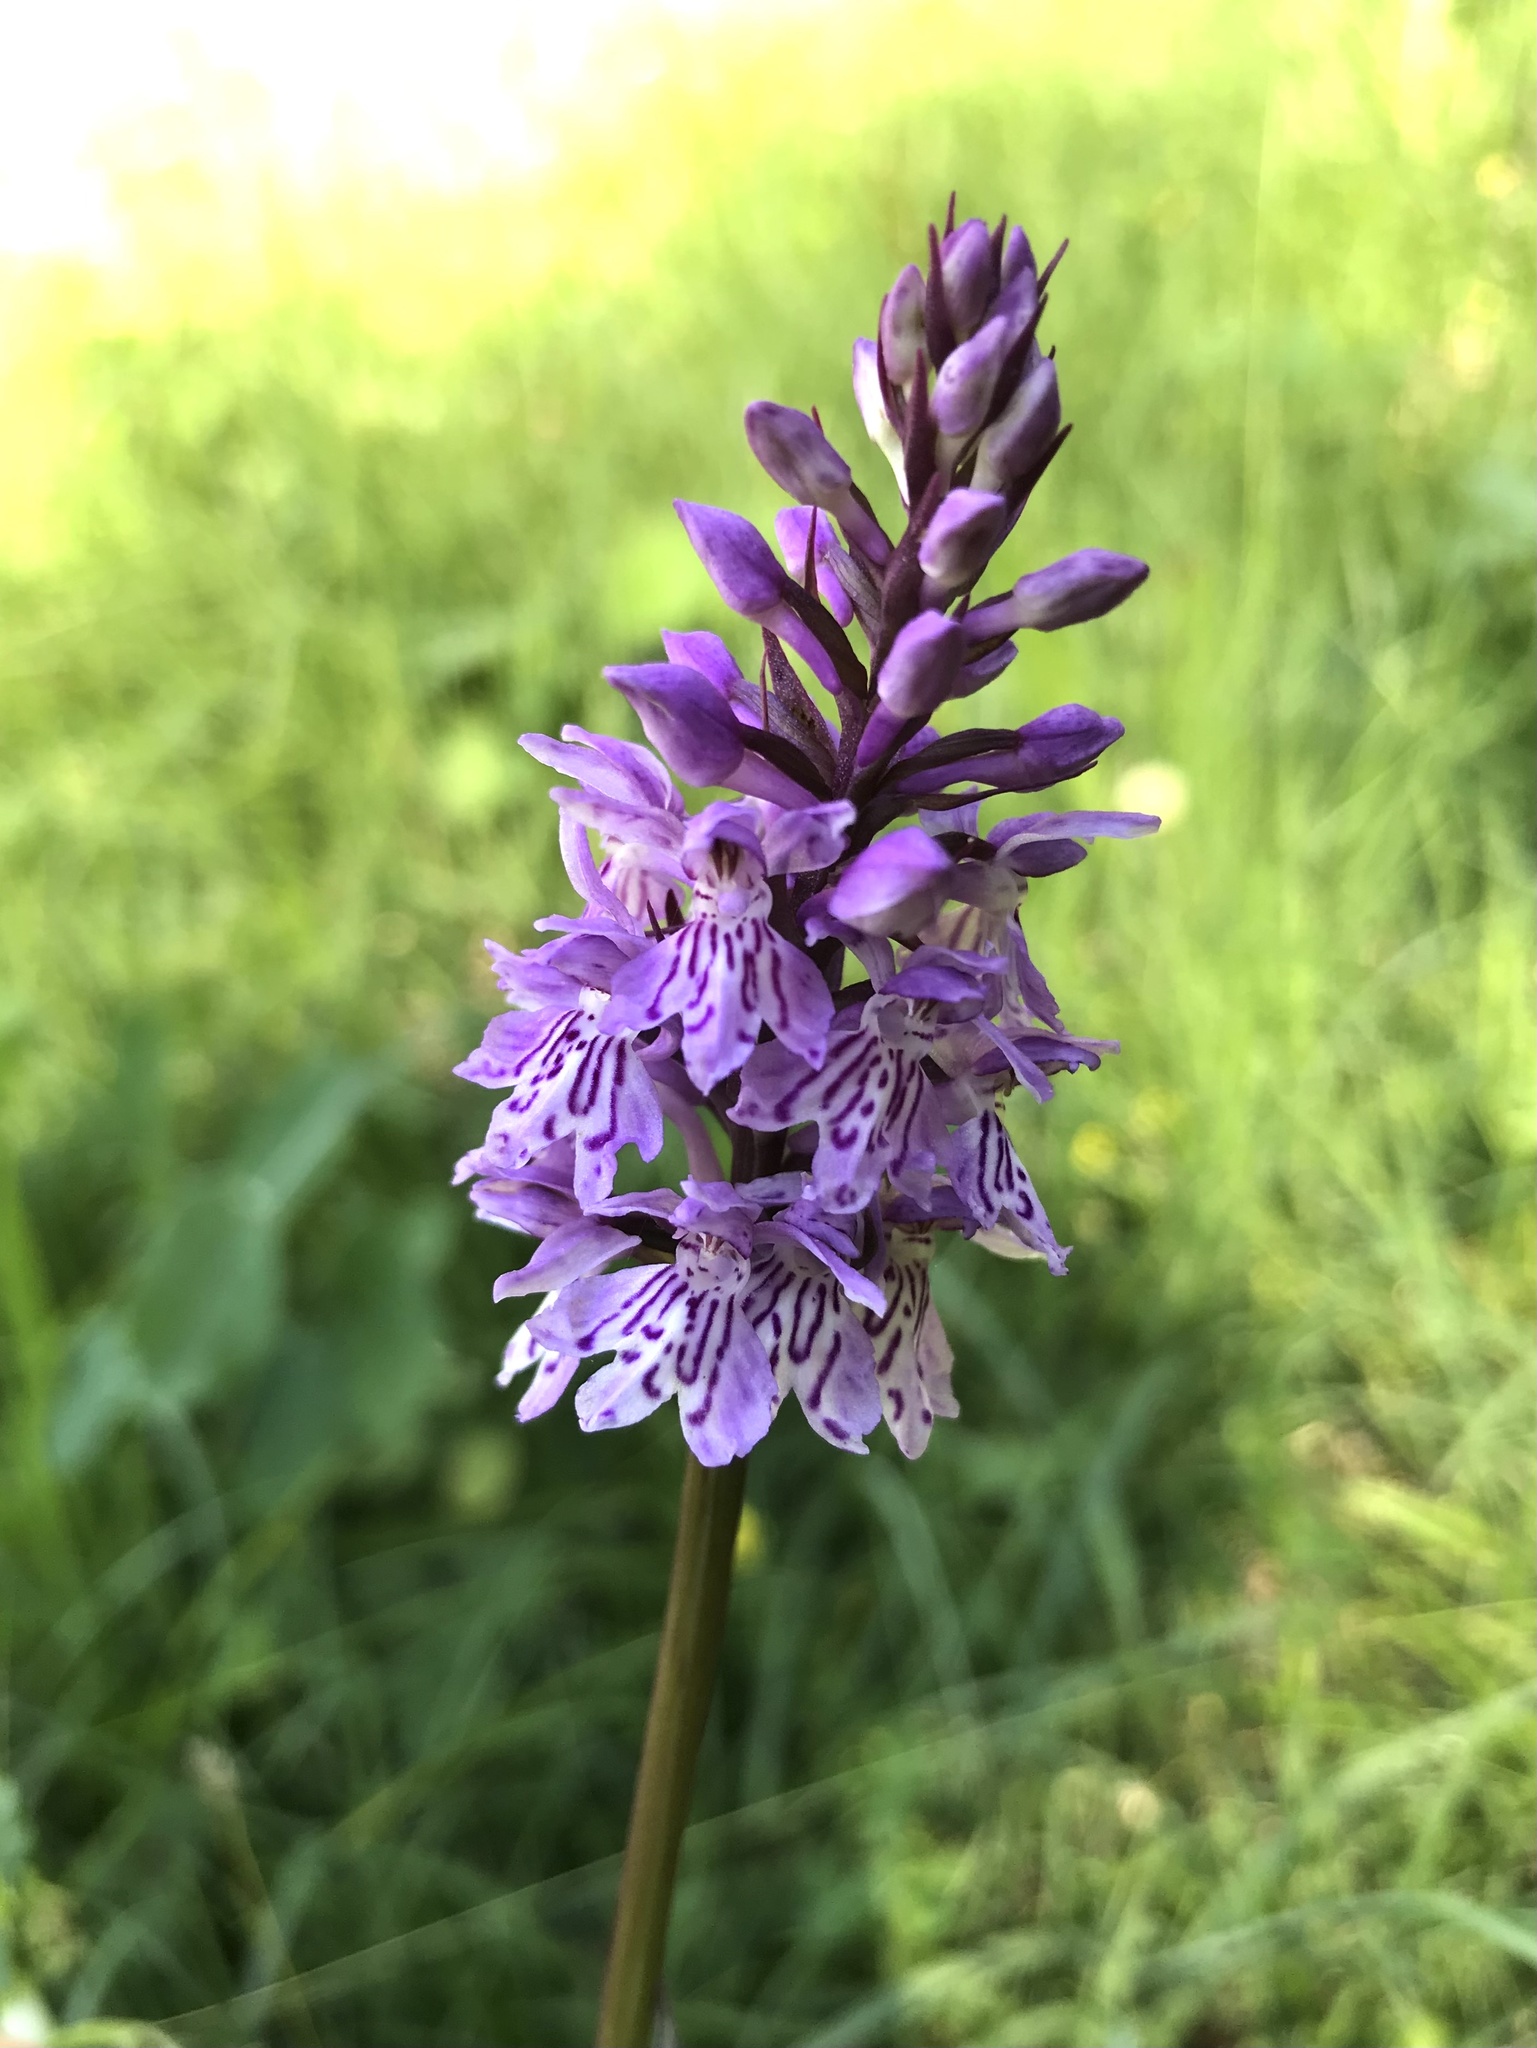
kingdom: Plantae
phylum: Tracheophyta
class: Liliopsida
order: Asparagales
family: Orchidaceae
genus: Dactylorhiza
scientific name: Dactylorhiza maculata
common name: Heath spotted-orchid
